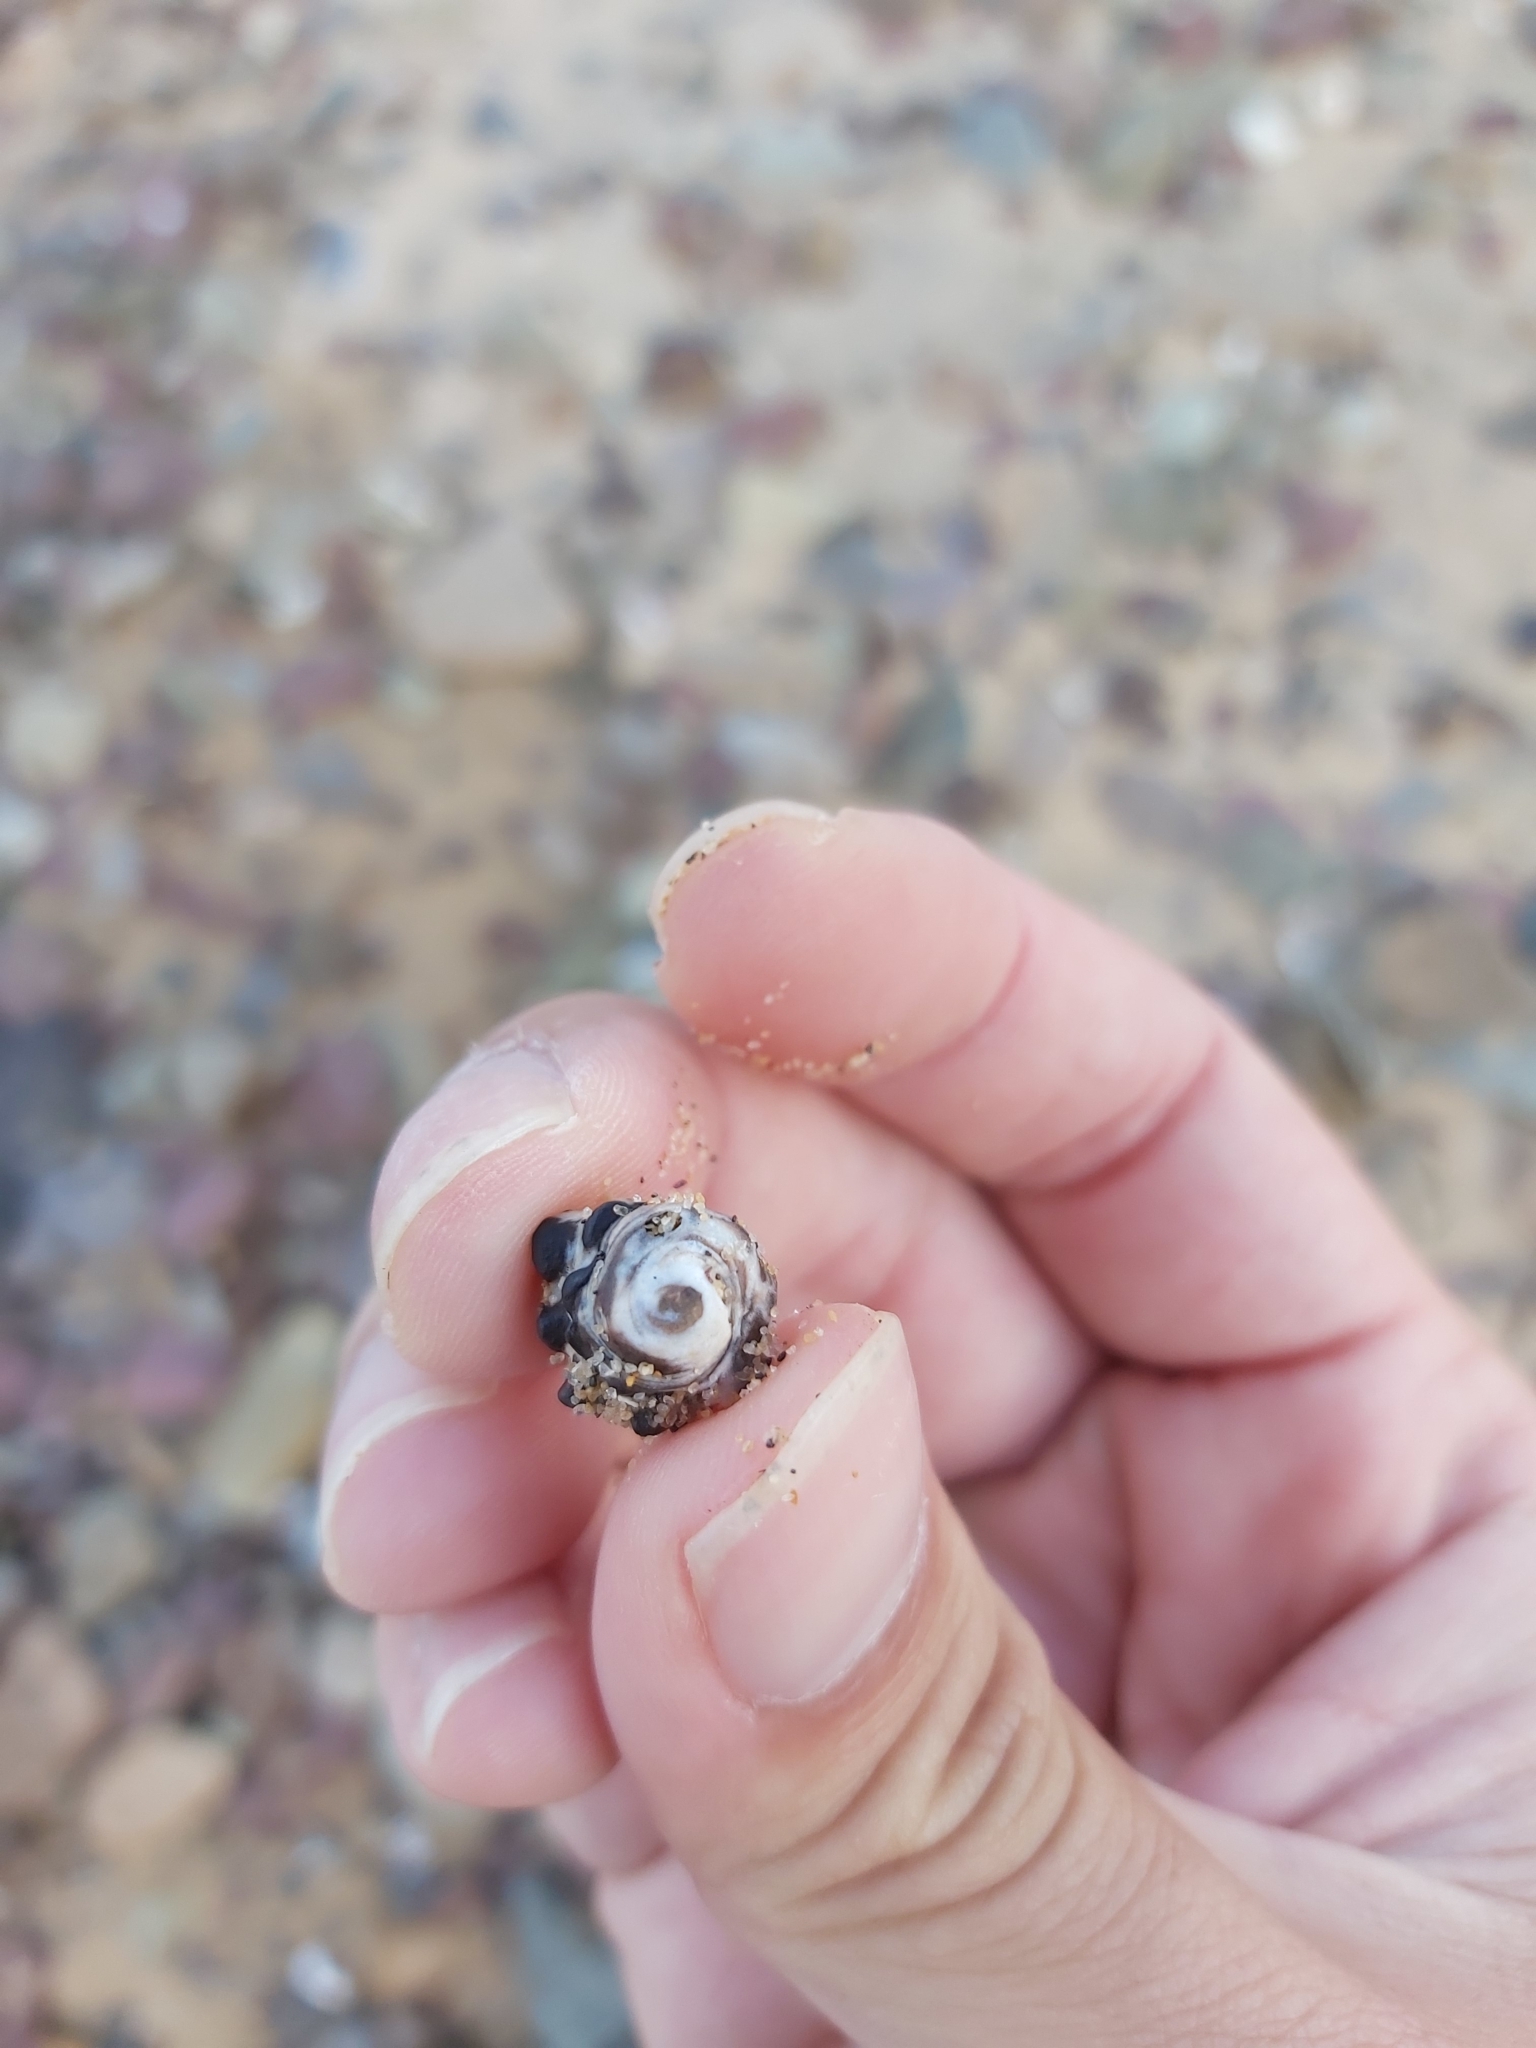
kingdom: Animalia
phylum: Mollusca
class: Gastropoda
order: Neogastropoda
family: Muricidae
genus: Tenguella
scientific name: Tenguella marginalba
